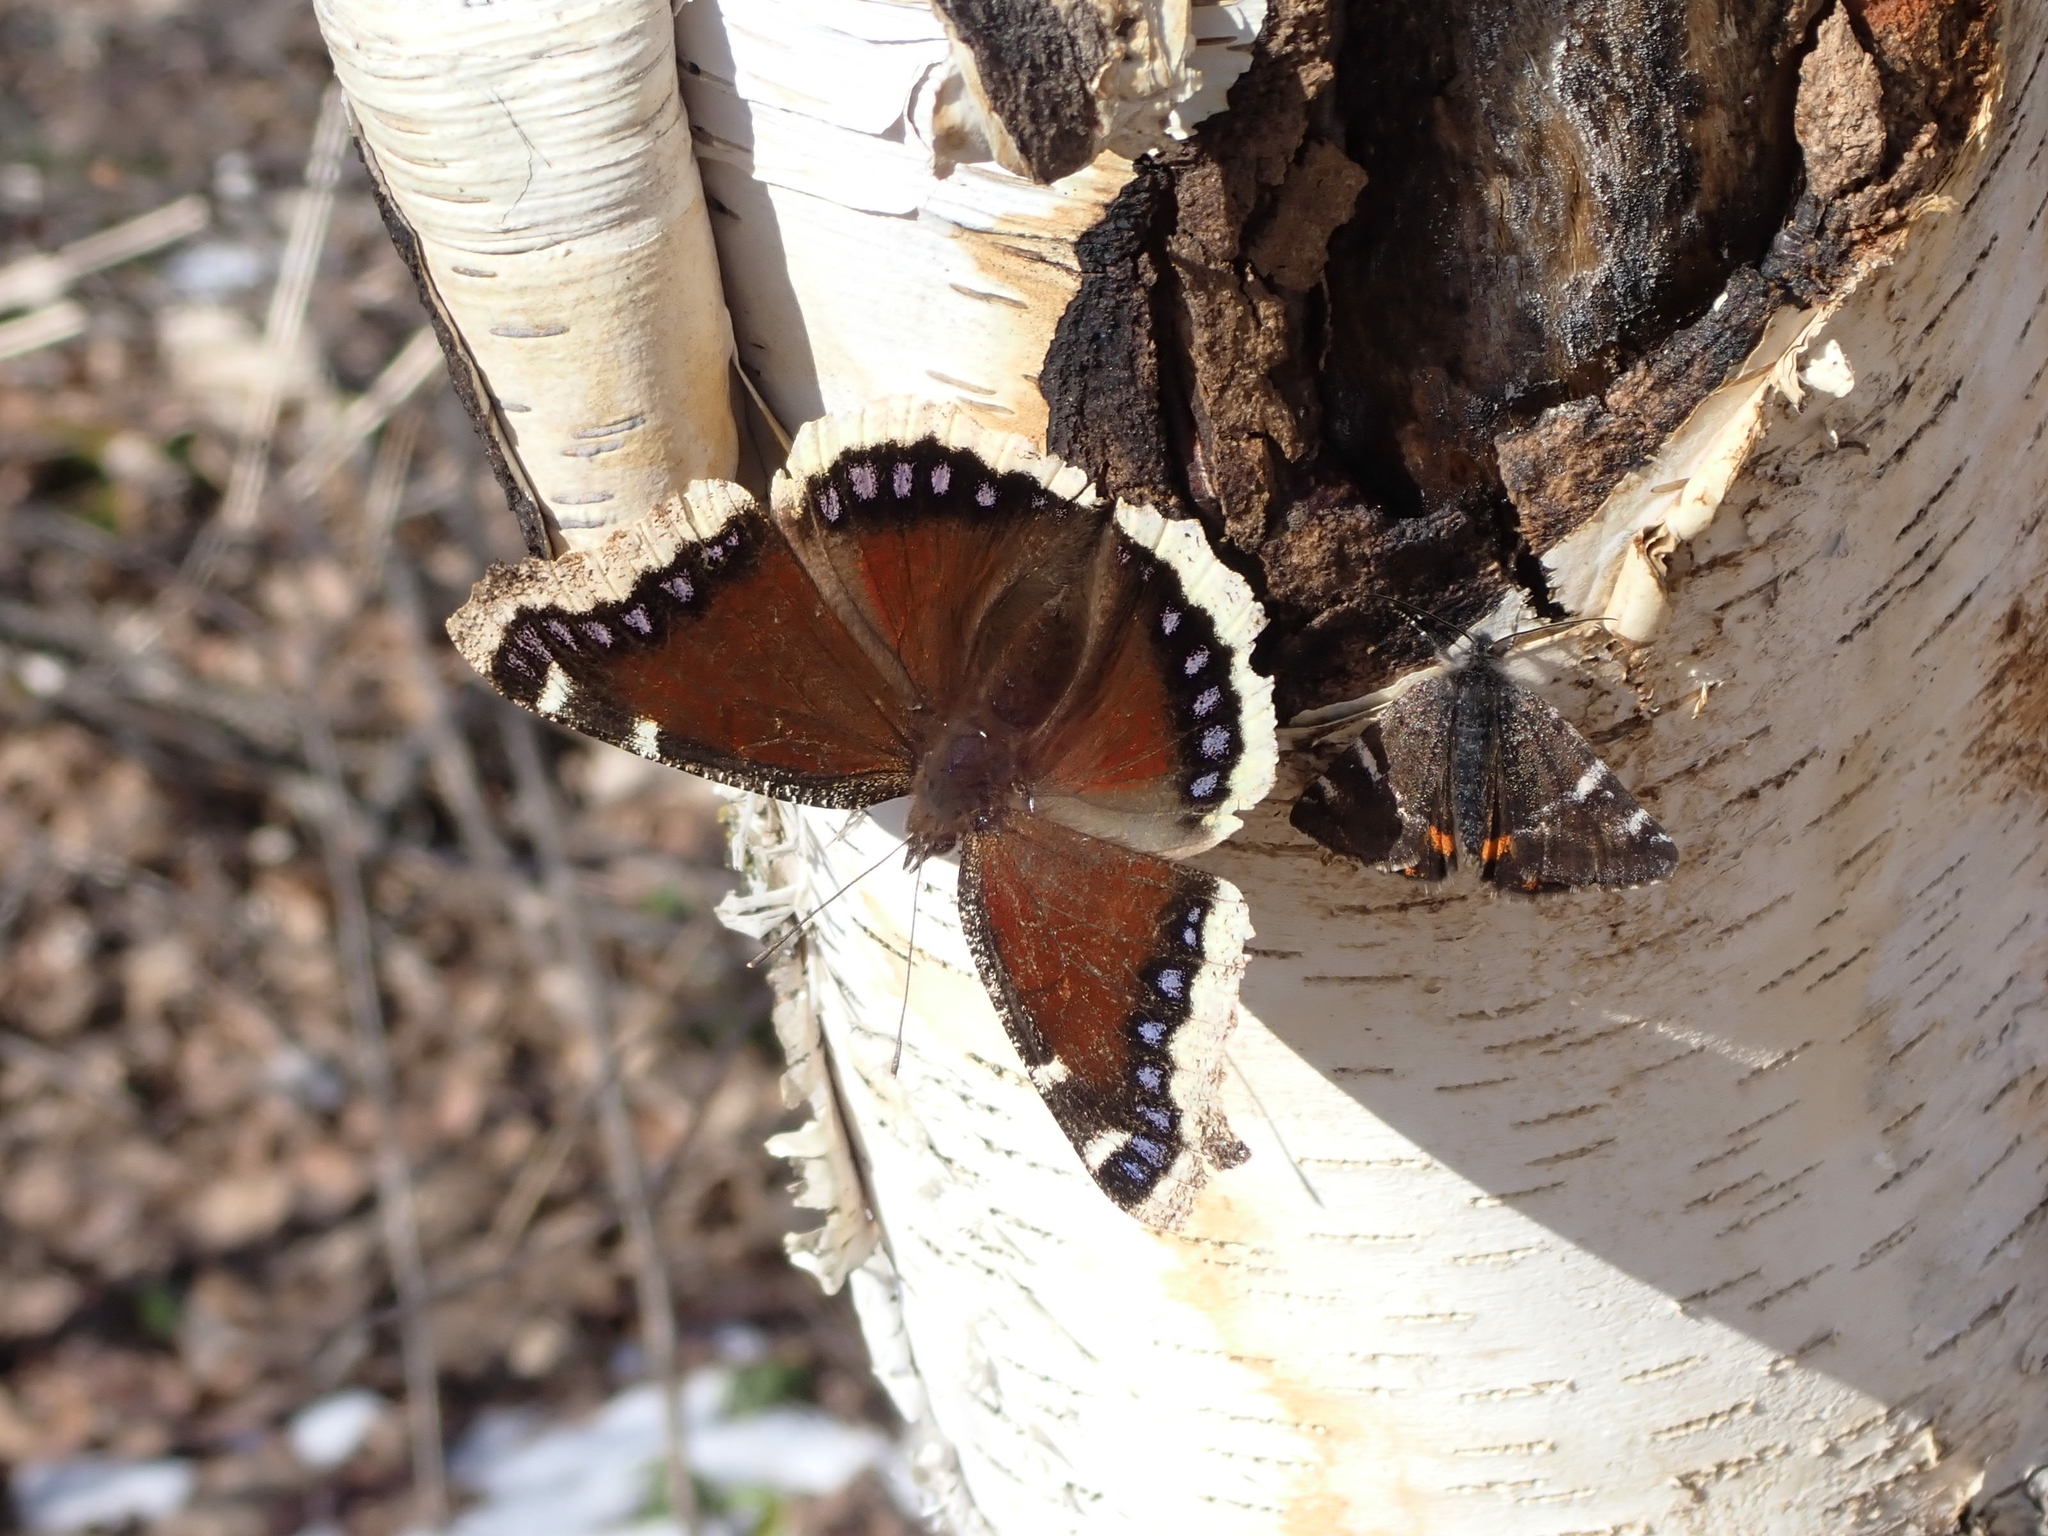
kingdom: Animalia
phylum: Arthropoda
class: Insecta
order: Lepidoptera
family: Nymphalidae
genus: Nymphalis
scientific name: Nymphalis antiopa
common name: Camberwell beauty
